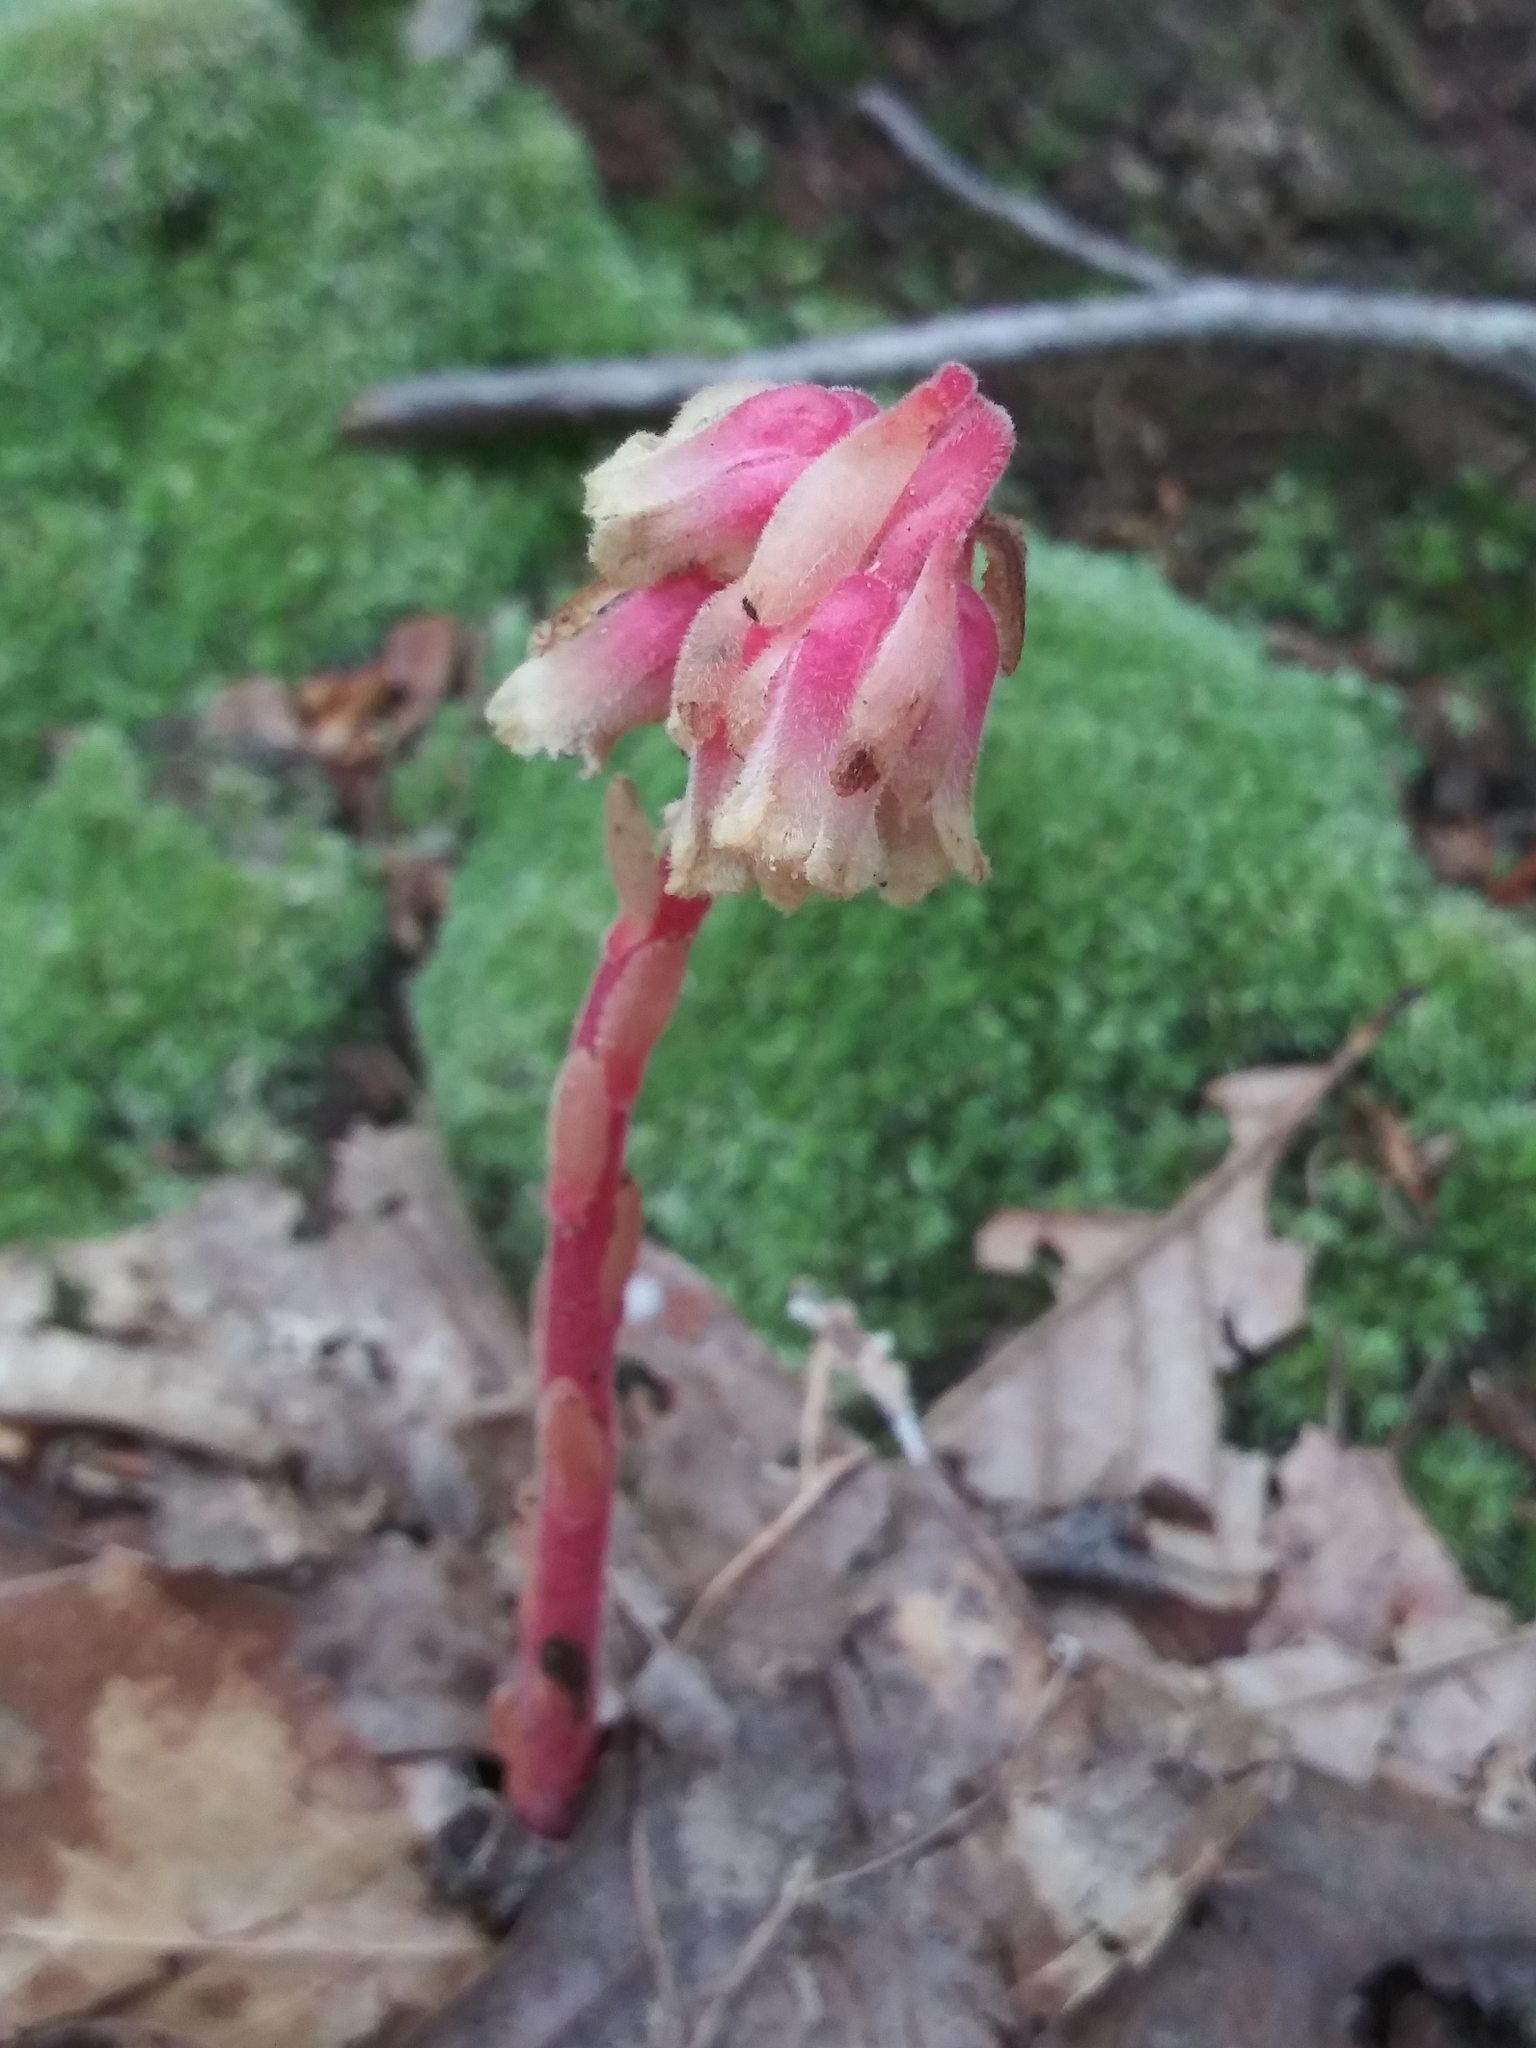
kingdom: Plantae
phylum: Tracheophyta
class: Magnoliopsida
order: Ericales
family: Ericaceae
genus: Hypopitys
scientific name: Hypopitys monotropa
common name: Yellow bird's-nest
